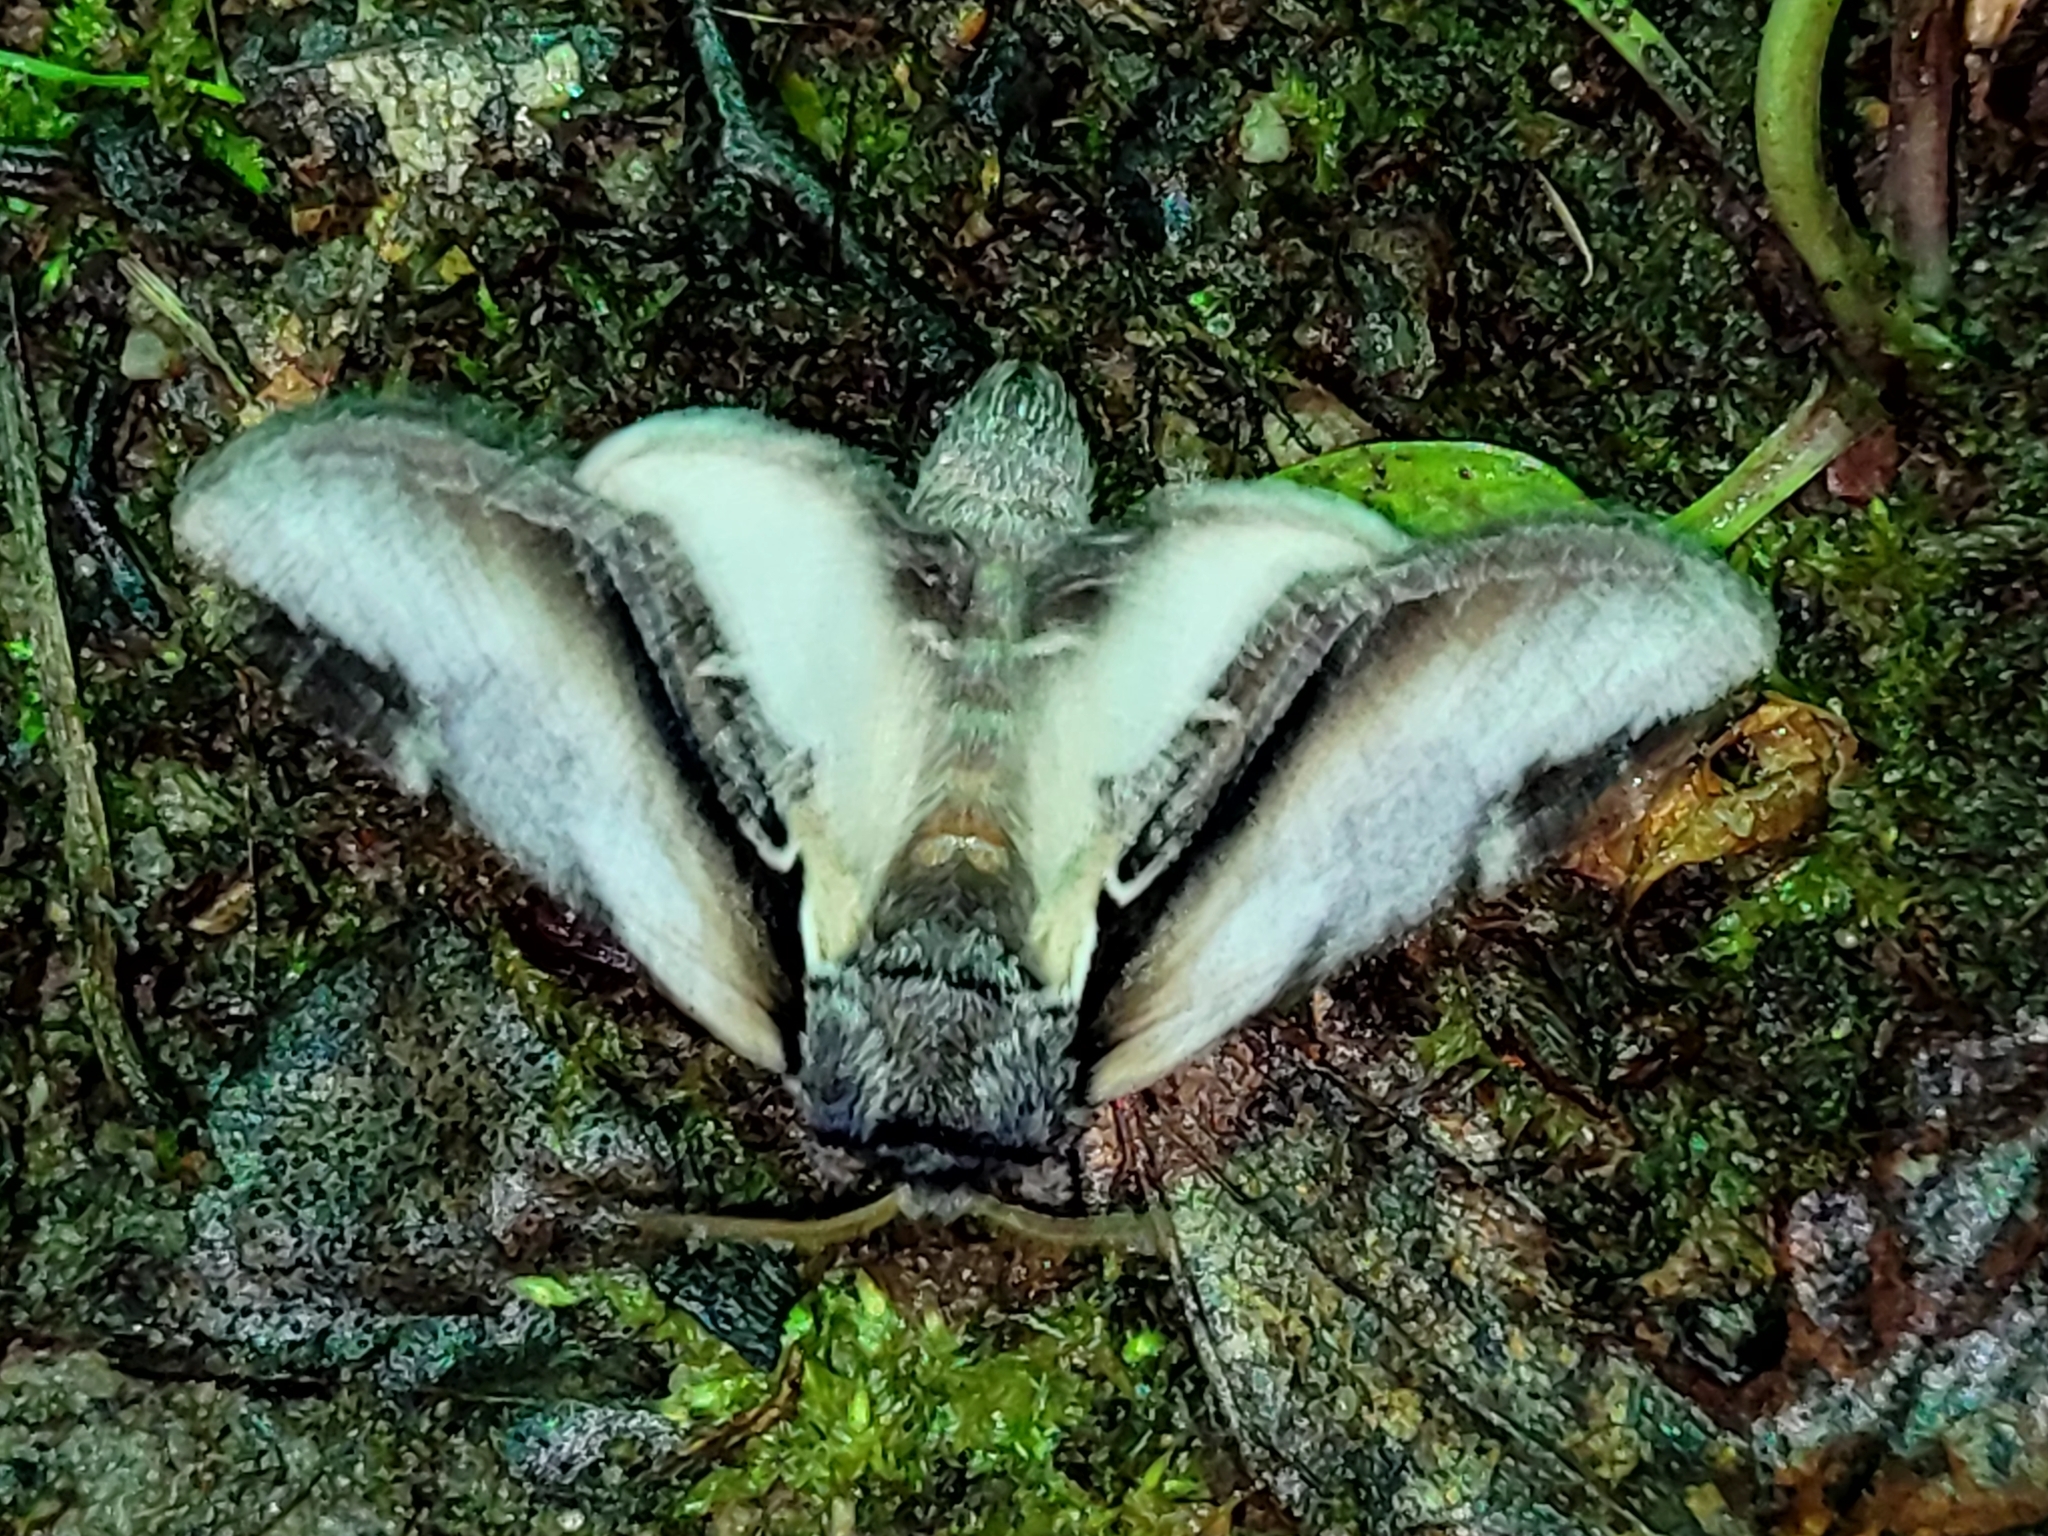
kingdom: Animalia
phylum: Arthropoda
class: Insecta
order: Lepidoptera
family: Notodontidae
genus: Pheosia
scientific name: Pheosia rimosa
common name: Black-rimmed prominent
